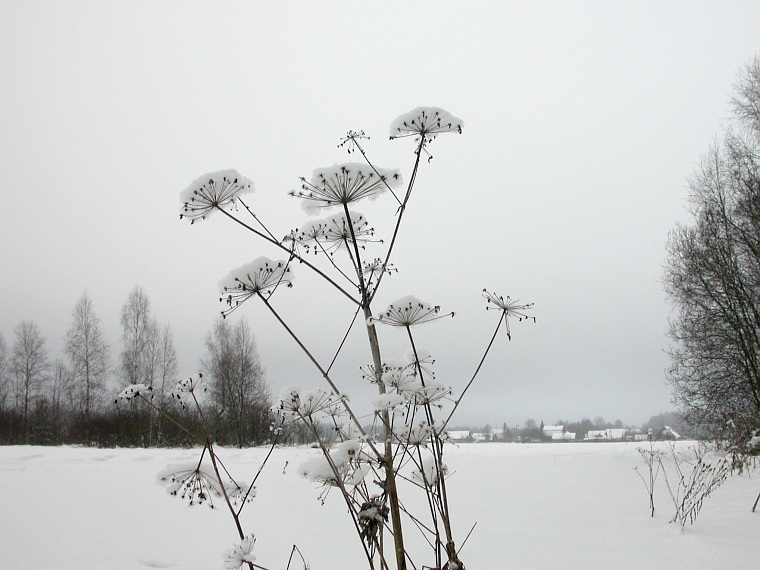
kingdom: Plantae
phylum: Tracheophyta
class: Magnoliopsida
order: Apiales
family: Apiaceae
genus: Angelica
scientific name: Angelica sylvestris
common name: Wild angelica
